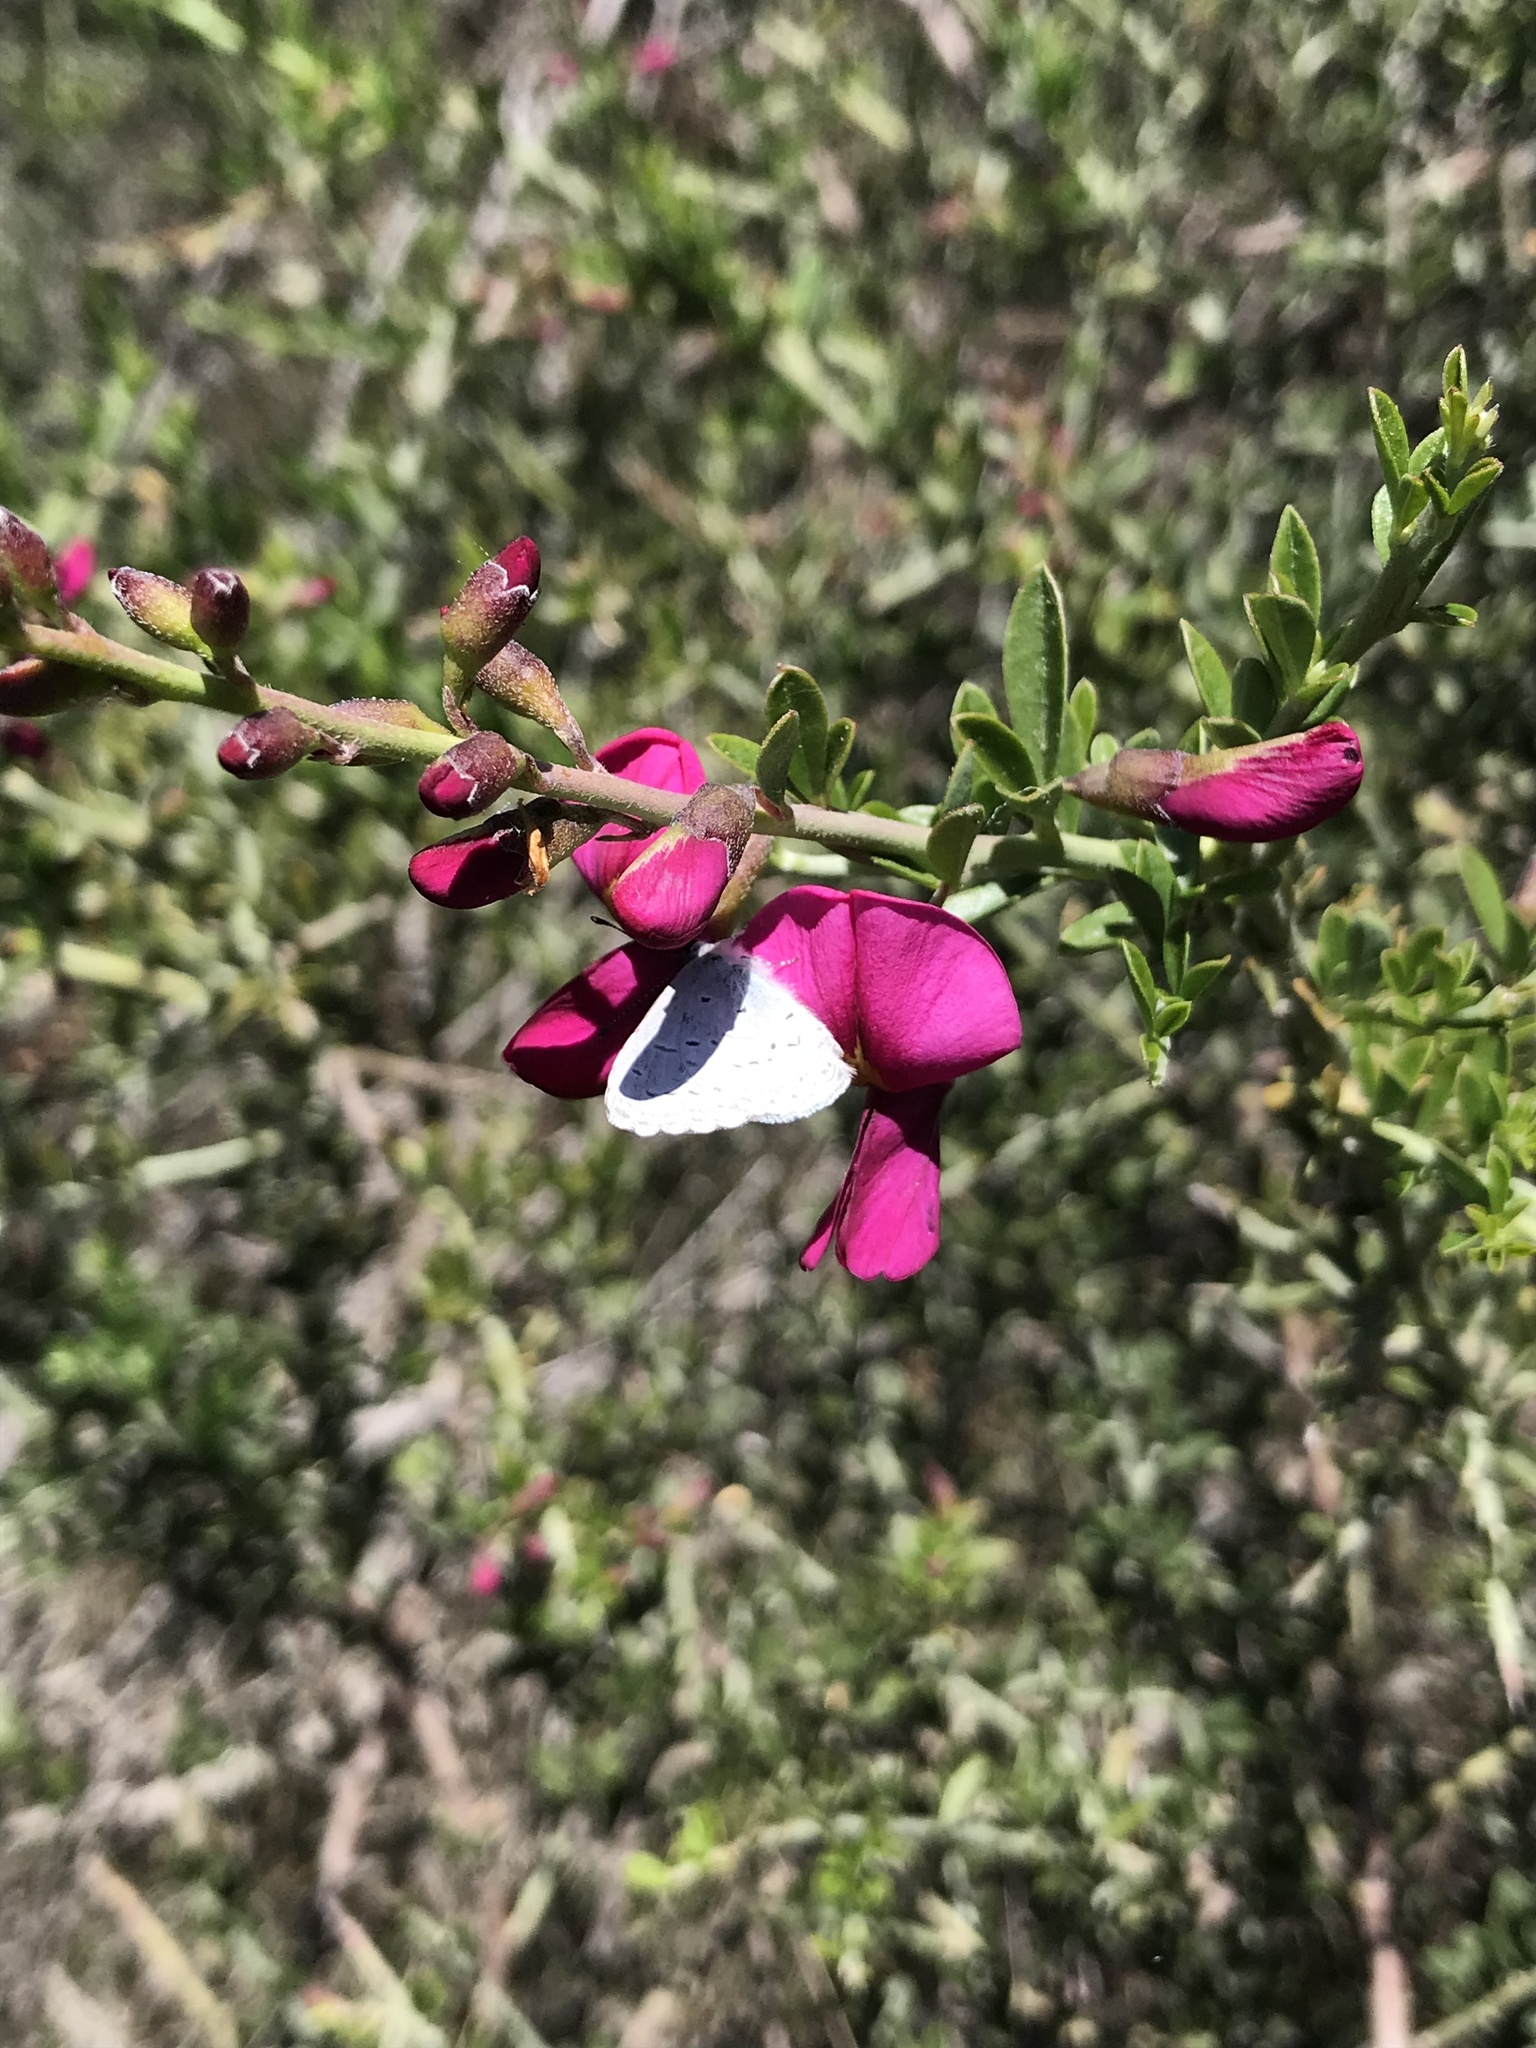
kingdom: Animalia
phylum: Arthropoda
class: Insecta
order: Lepidoptera
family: Lycaenidae
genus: Celastrina
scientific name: Celastrina ladon
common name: Spring azure
